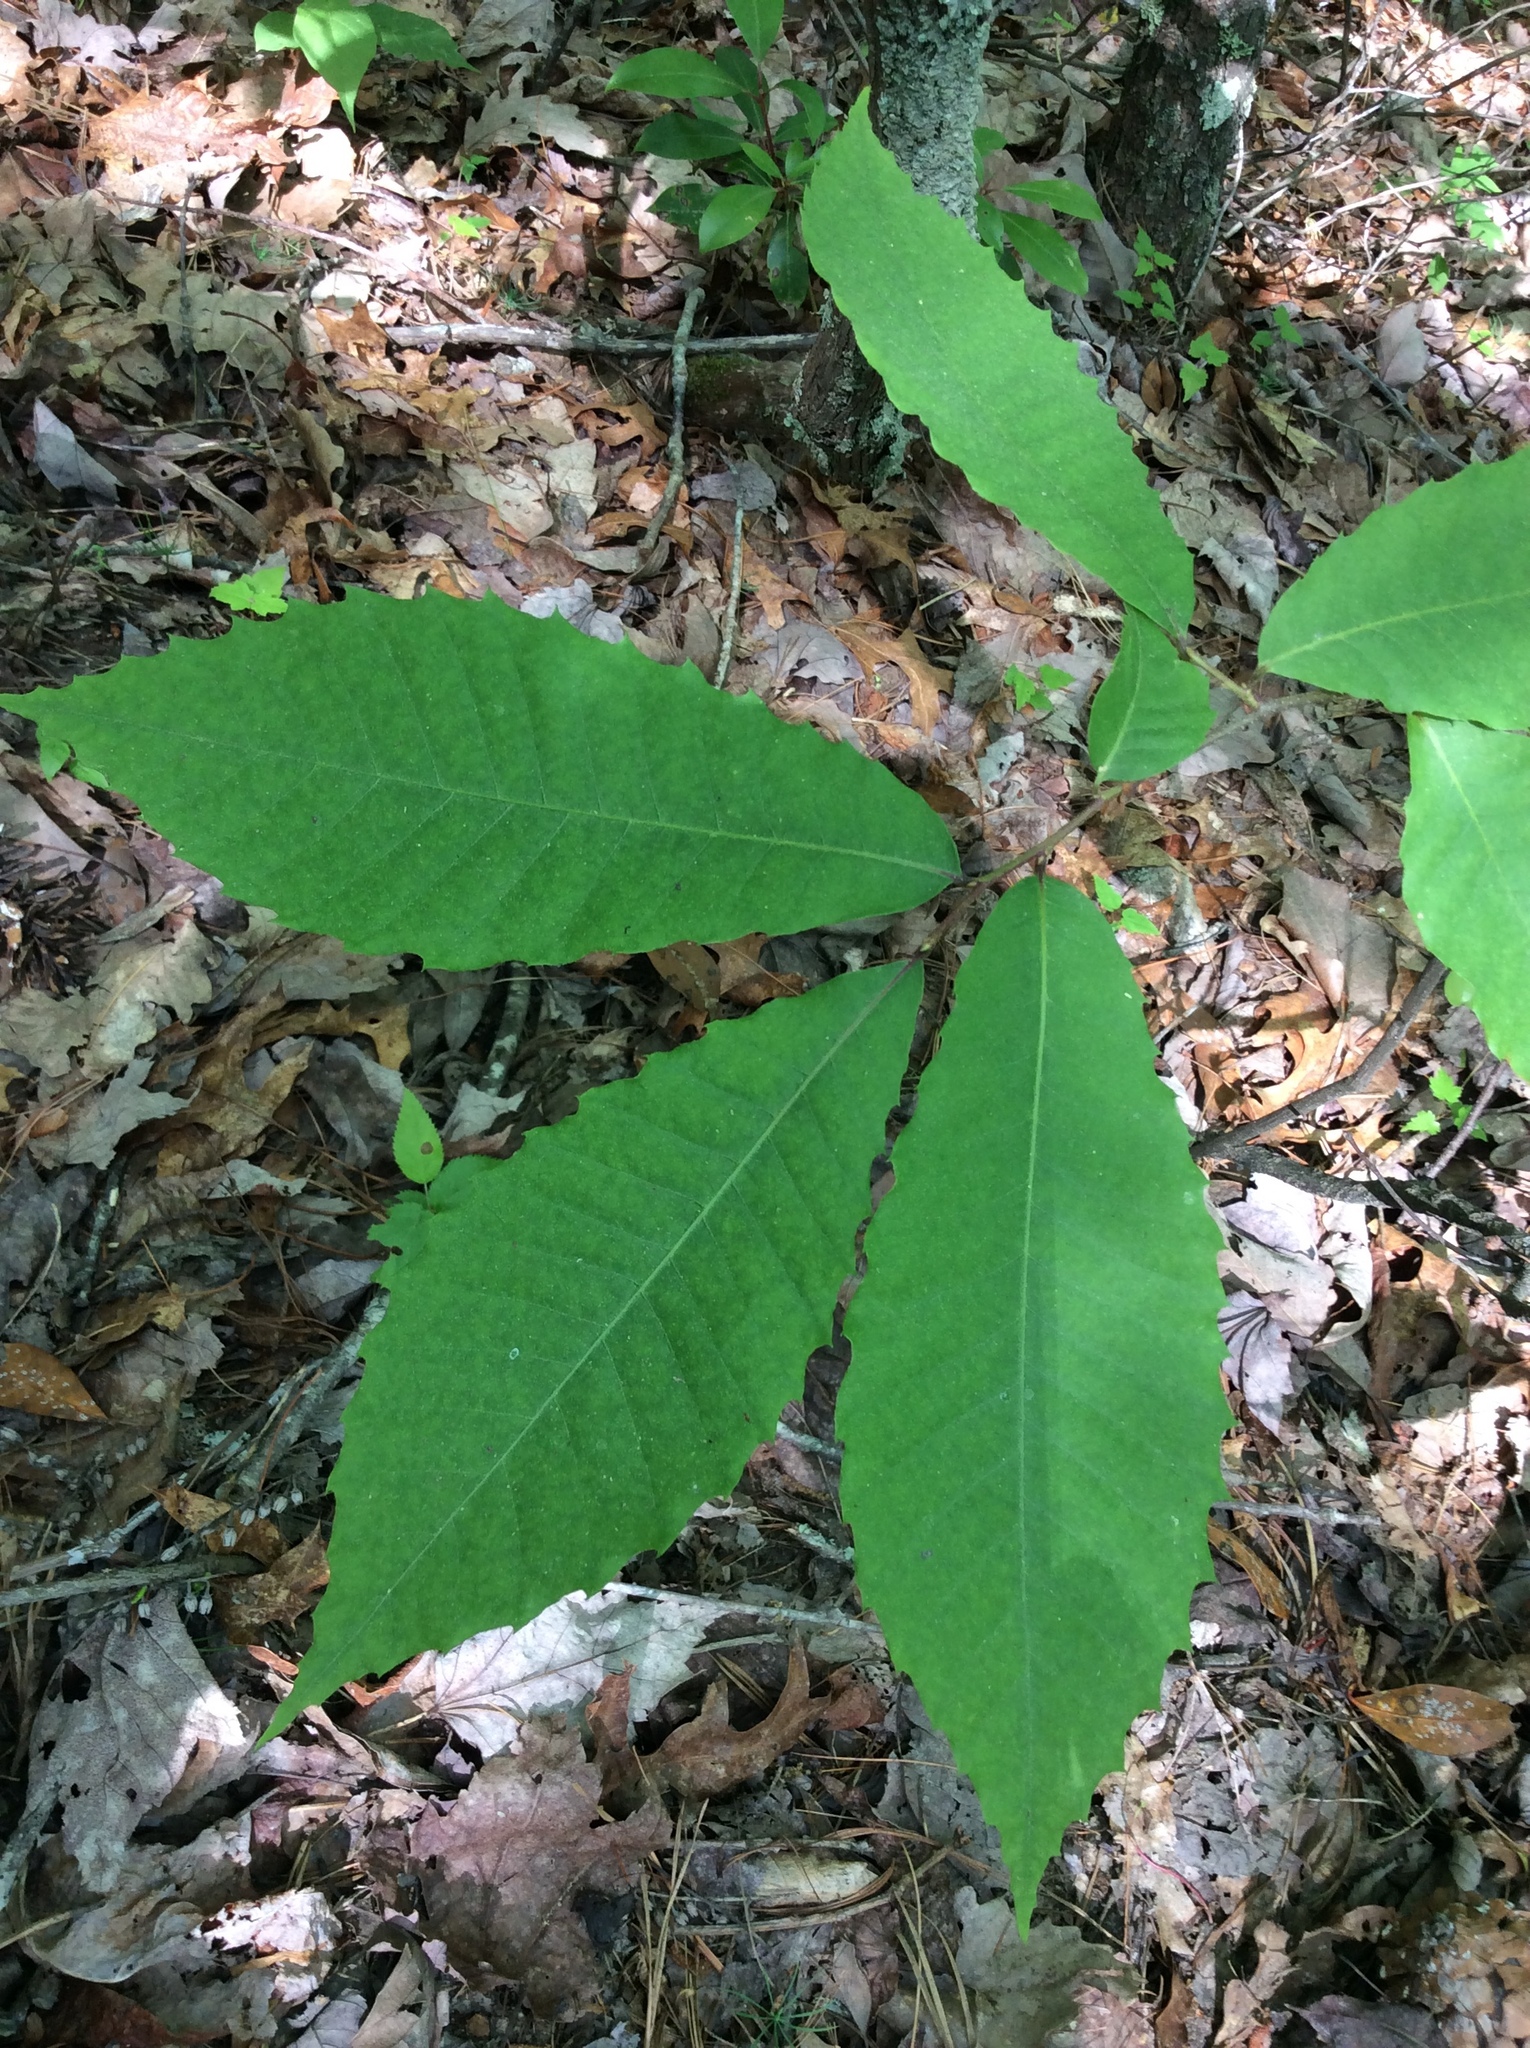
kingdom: Plantae
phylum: Tracheophyta
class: Magnoliopsida
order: Fagales
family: Fagaceae
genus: Castanea
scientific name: Castanea dentata
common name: American chestnut
